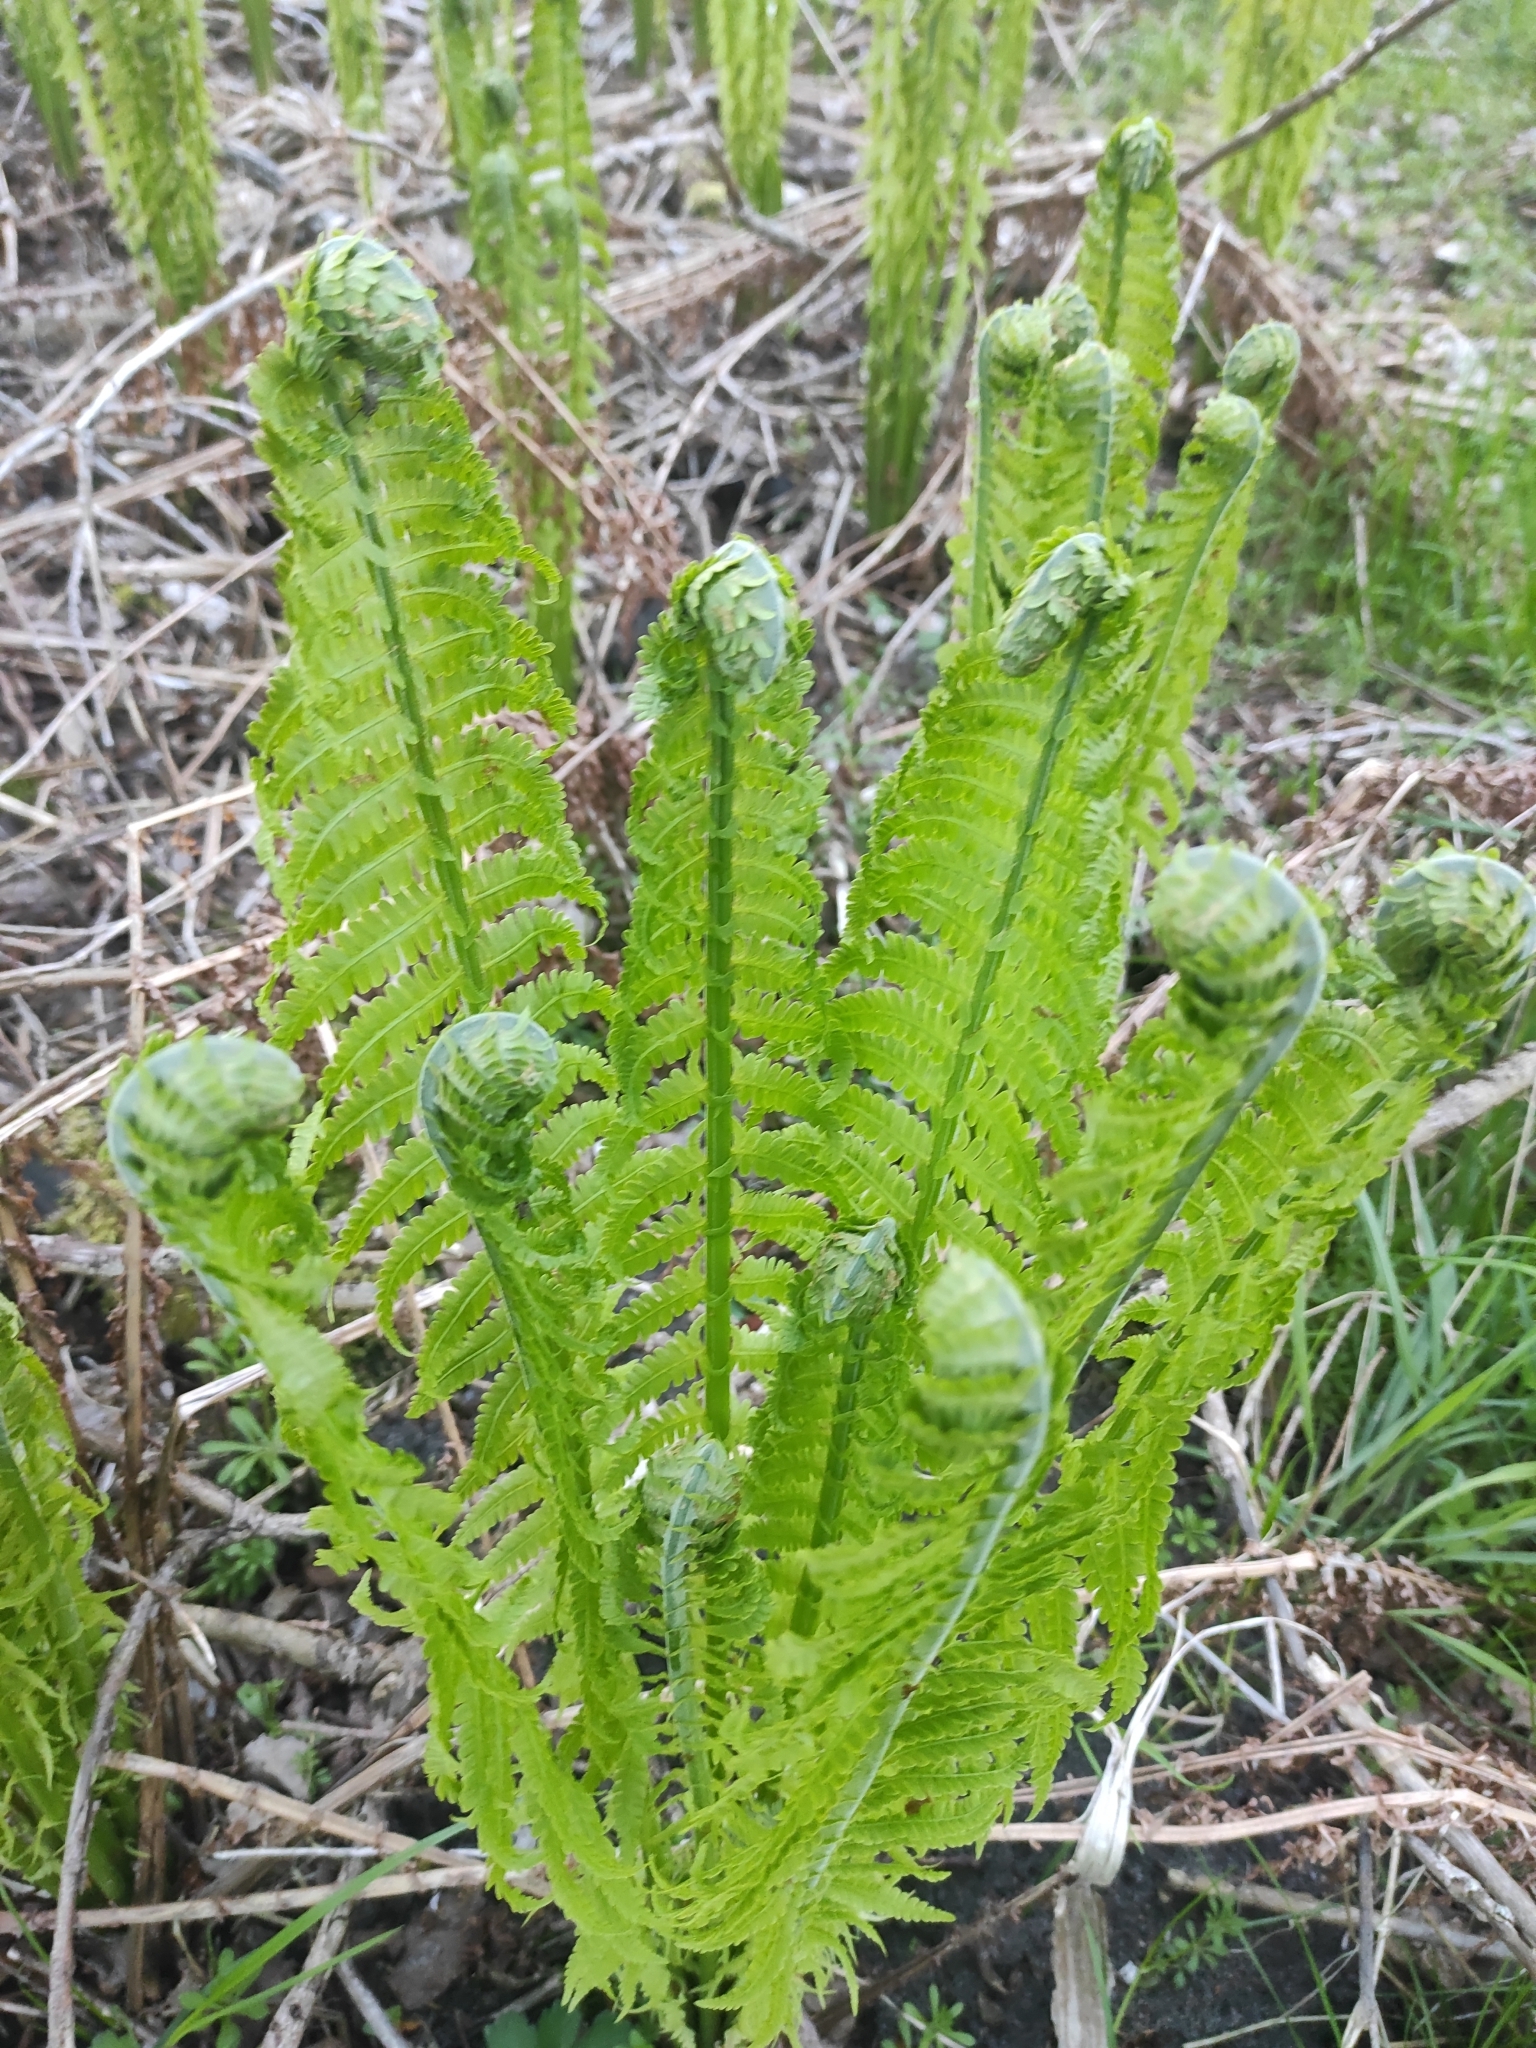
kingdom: Plantae
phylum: Tracheophyta
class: Polypodiopsida
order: Polypodiales
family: Onocleaceae
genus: Matteuccia
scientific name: Matteuccia struthiopteris
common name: Ostrich fern
